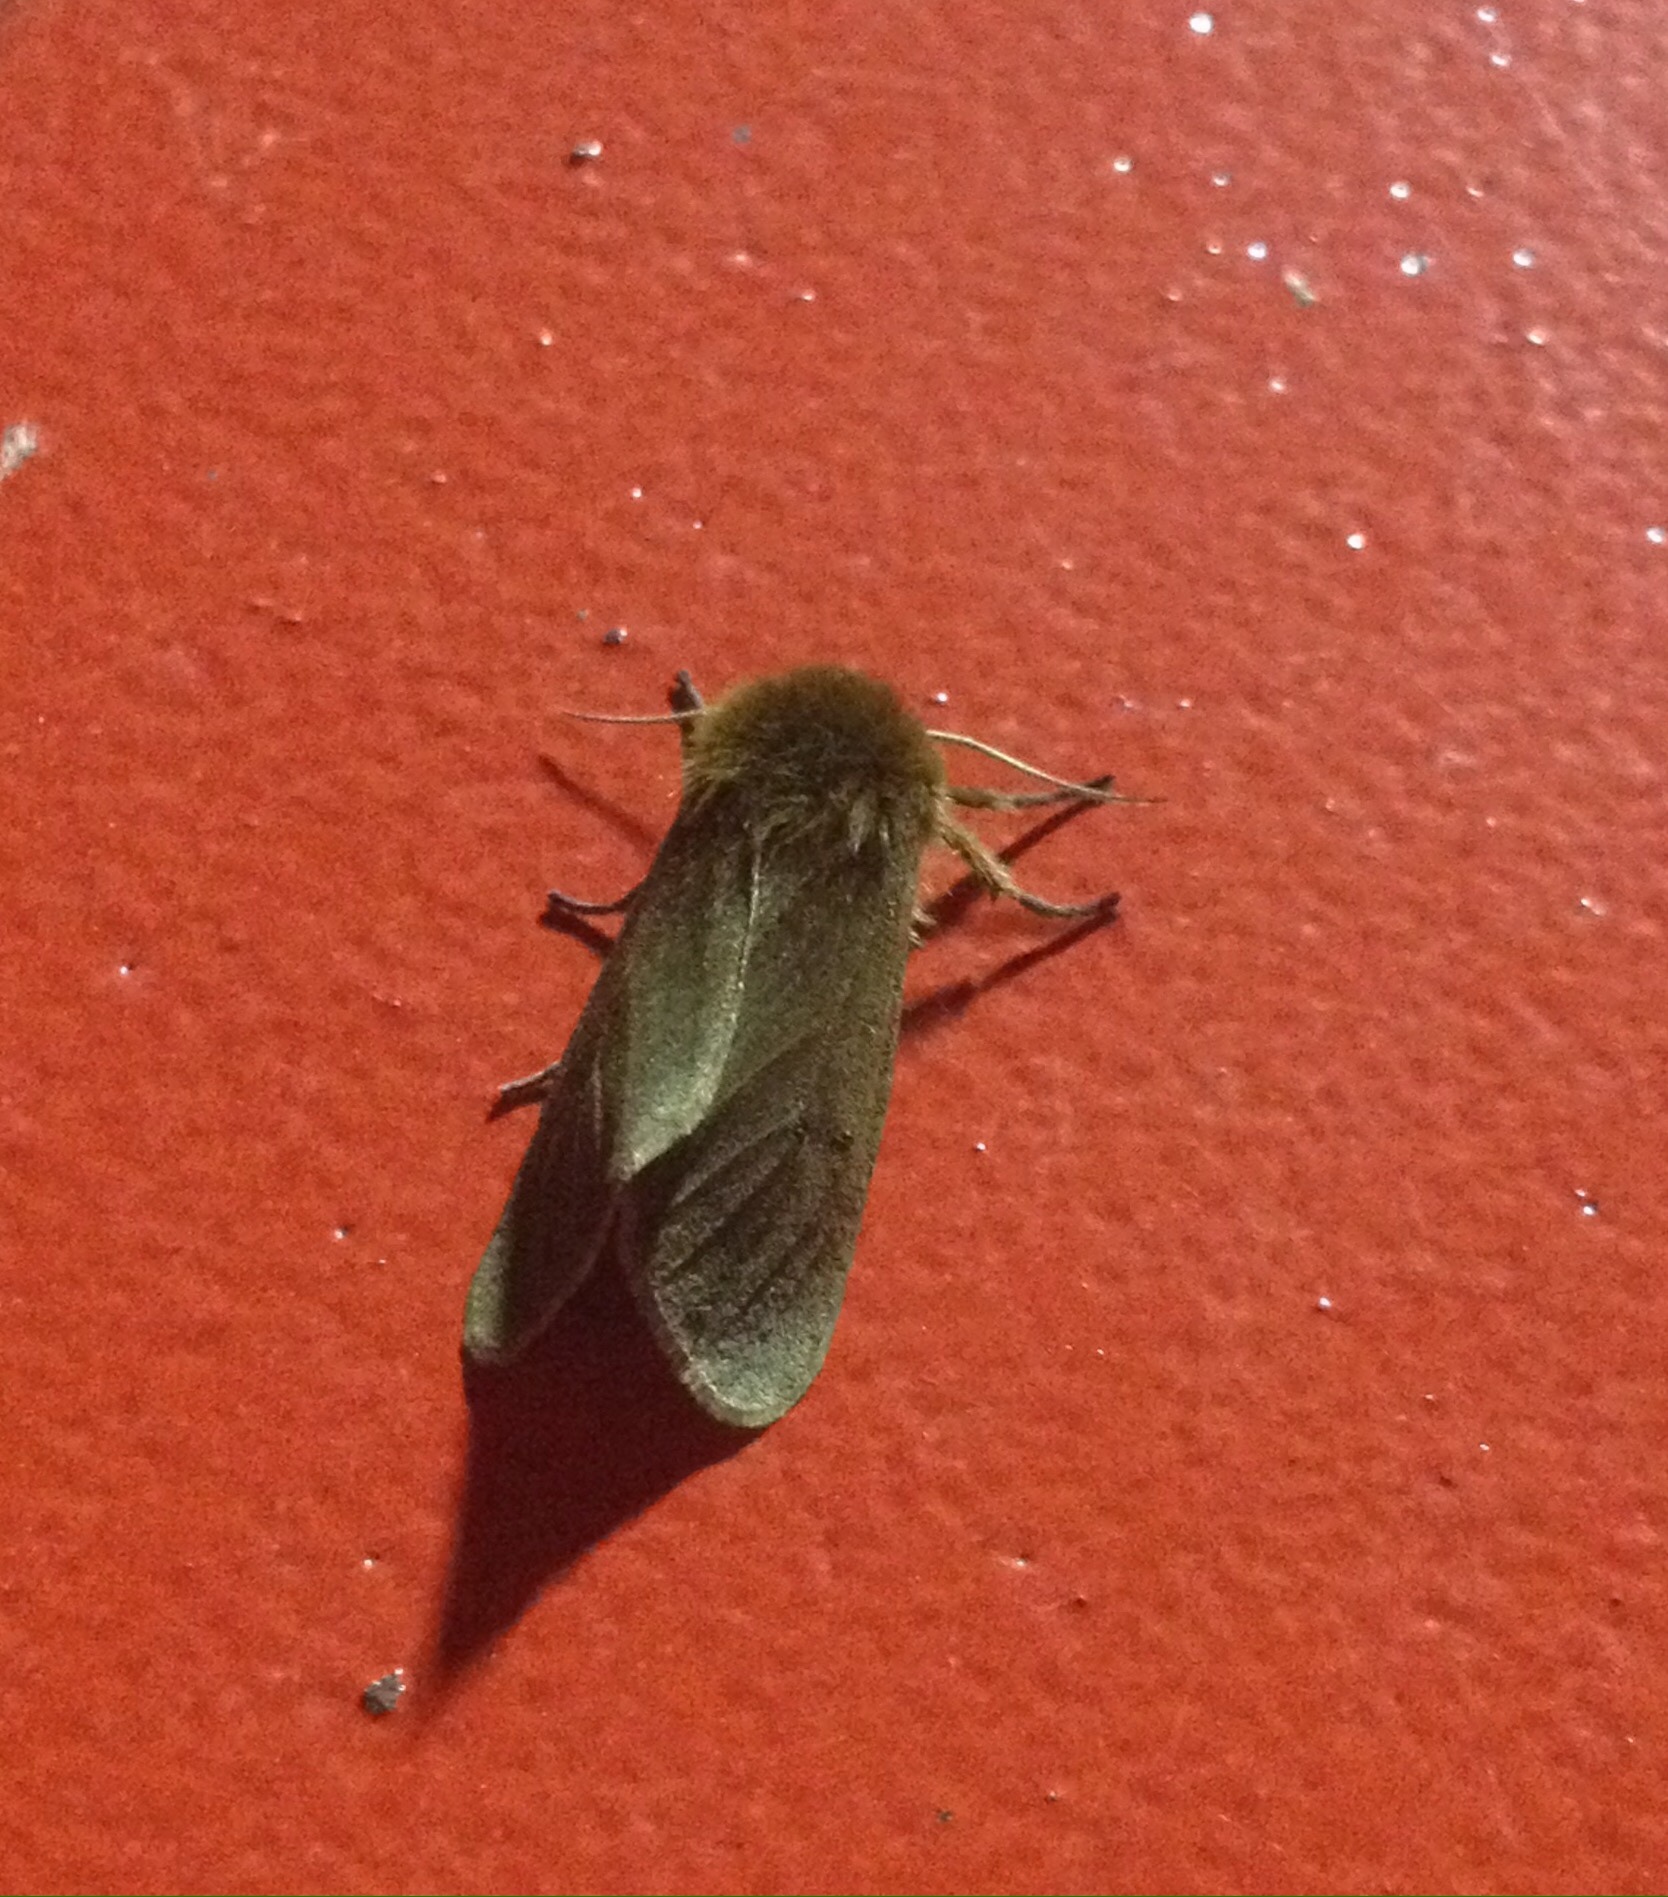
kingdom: Animalia
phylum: Arthropoda
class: Insecta
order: Lepidoptera
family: Erebidae
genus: Phragmatobia
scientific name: Phragmatobia fuliginosa
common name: Ruby tiger
